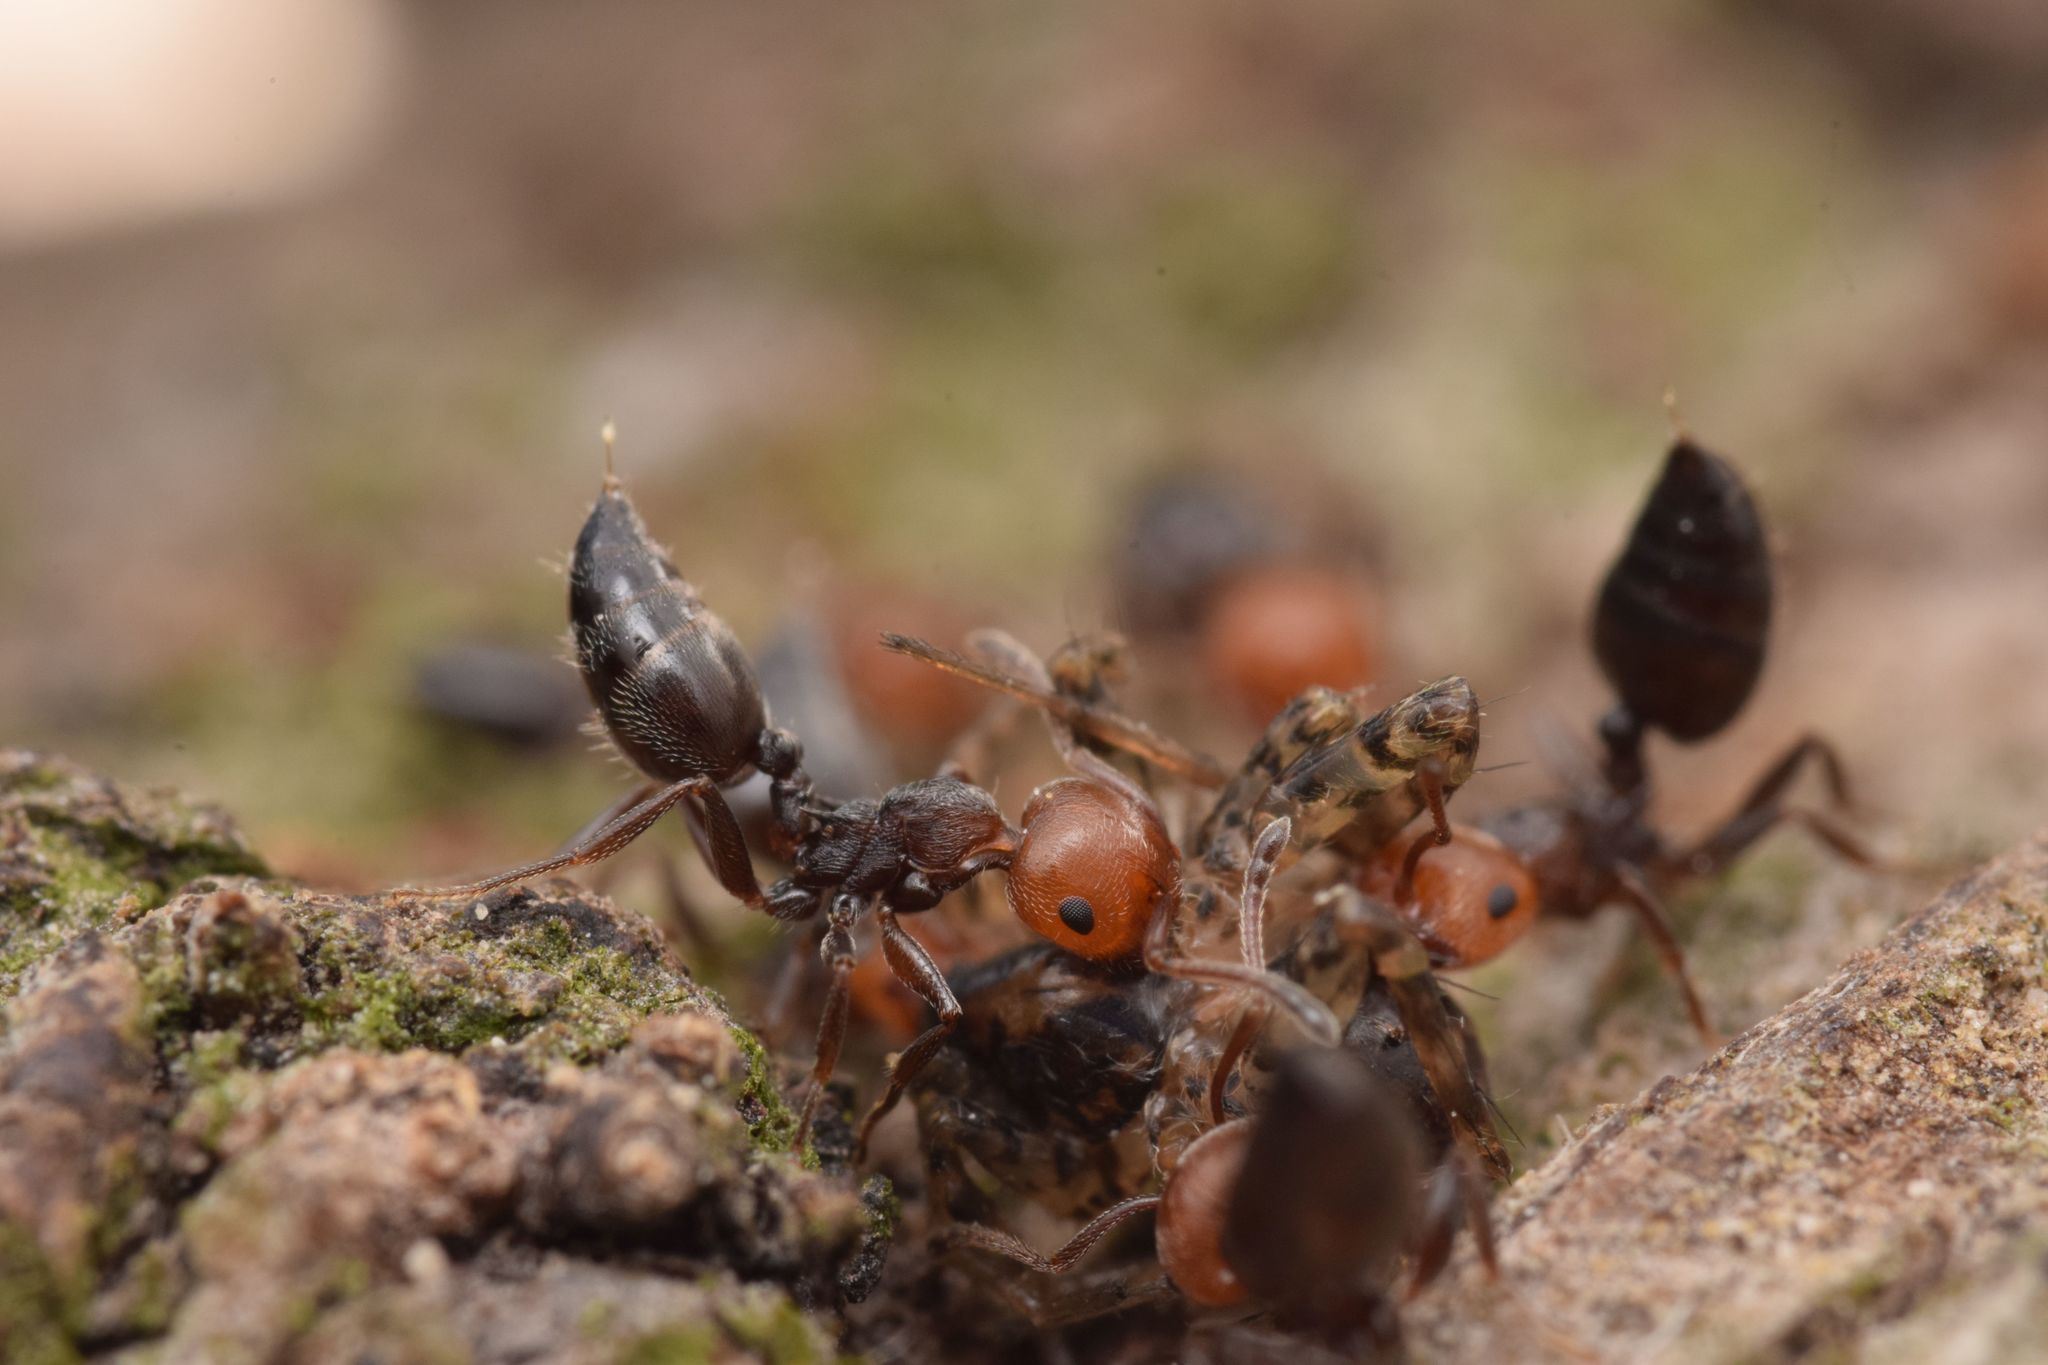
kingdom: Animalia
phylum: Arthropoda
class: Insecta
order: Hymenoptera
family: Formicidae
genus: Crematogaster
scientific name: Crematogaster scutellaris
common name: Fourmi du liège
